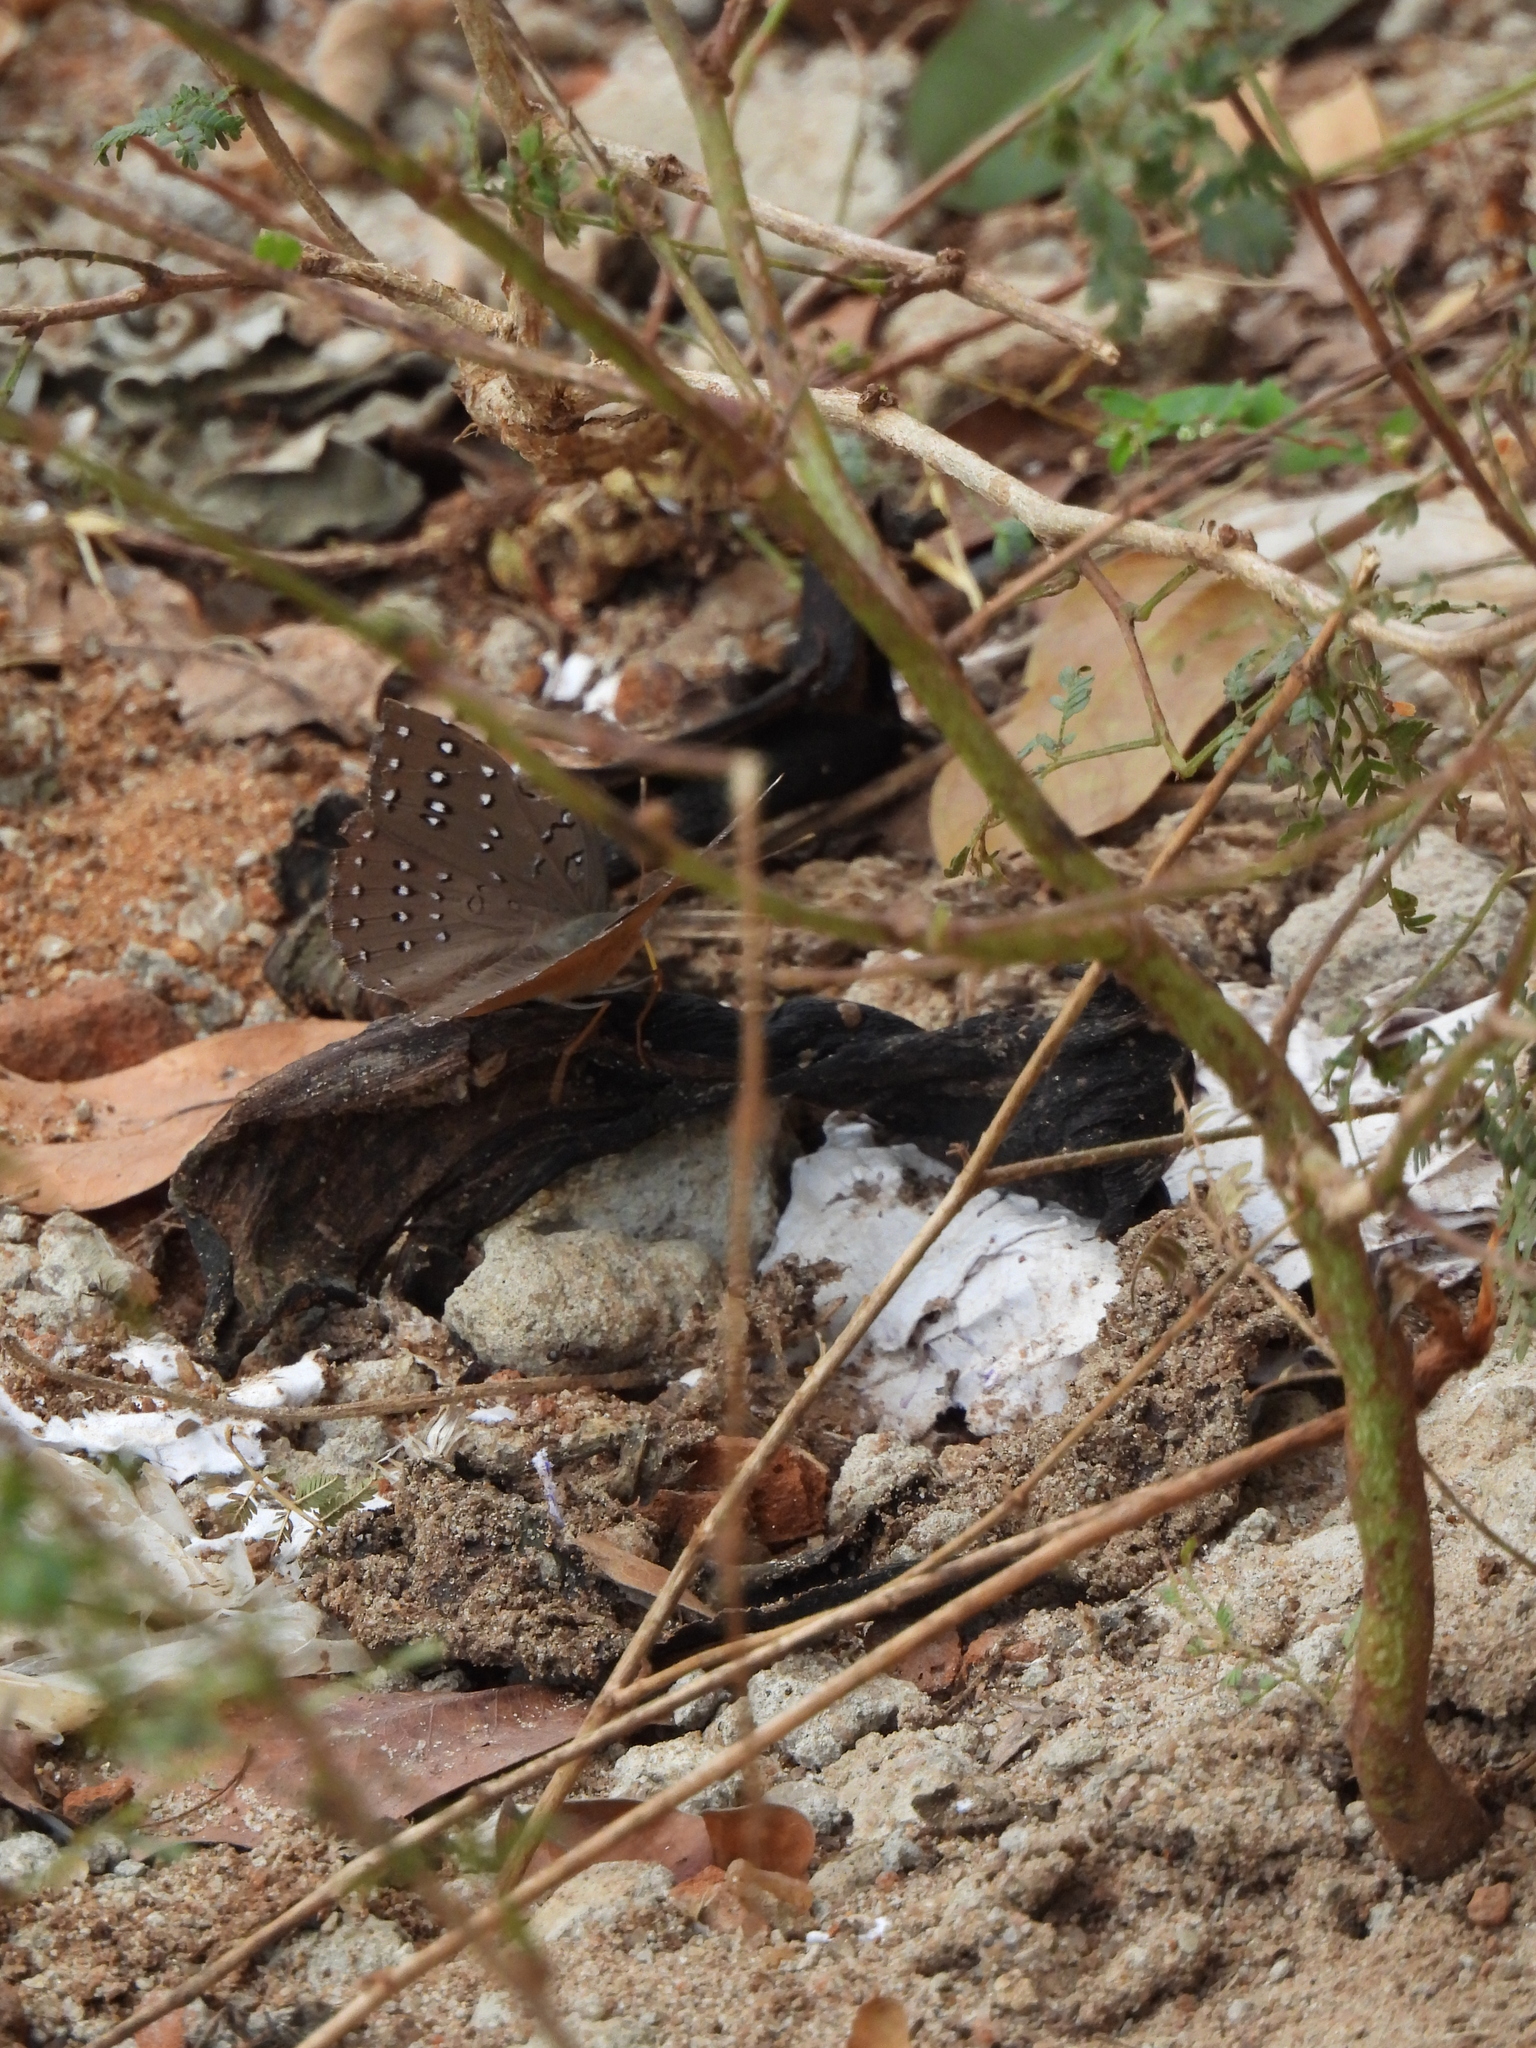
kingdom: Animalia
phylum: Arthropoda
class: Insecta
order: Lepidoptera
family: Nymphalidae
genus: Hamanumida
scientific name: Hamanumida daedalus
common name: Guinea-fowl butterfly
